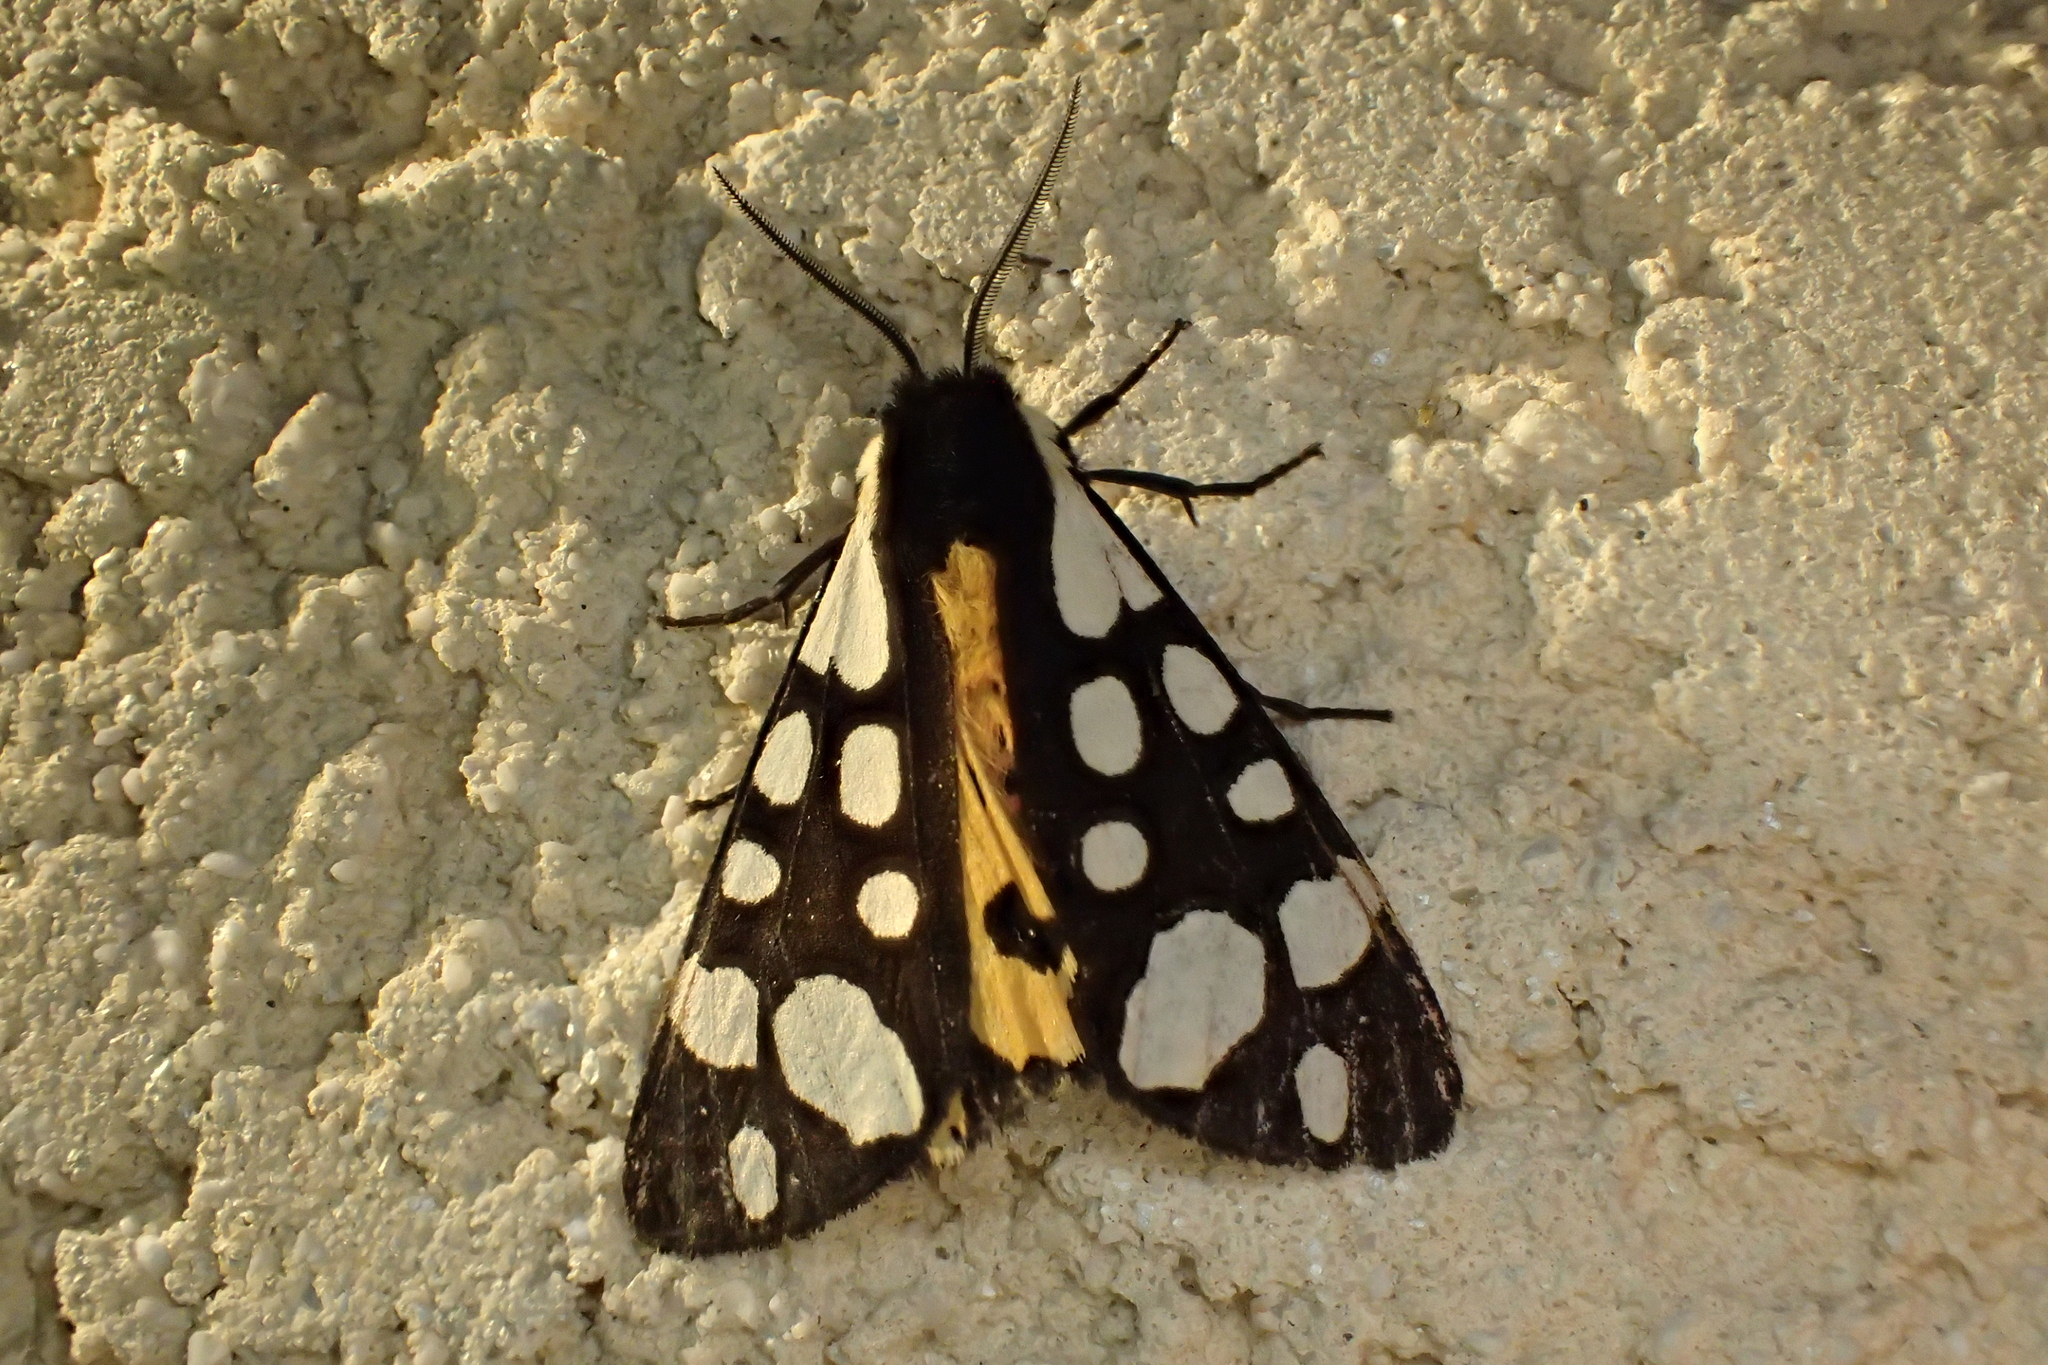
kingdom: Animalia
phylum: Arthropoda
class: Insecta
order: Lepidoptera
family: Erebidae
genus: Epicallia
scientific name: Epicallia villica
